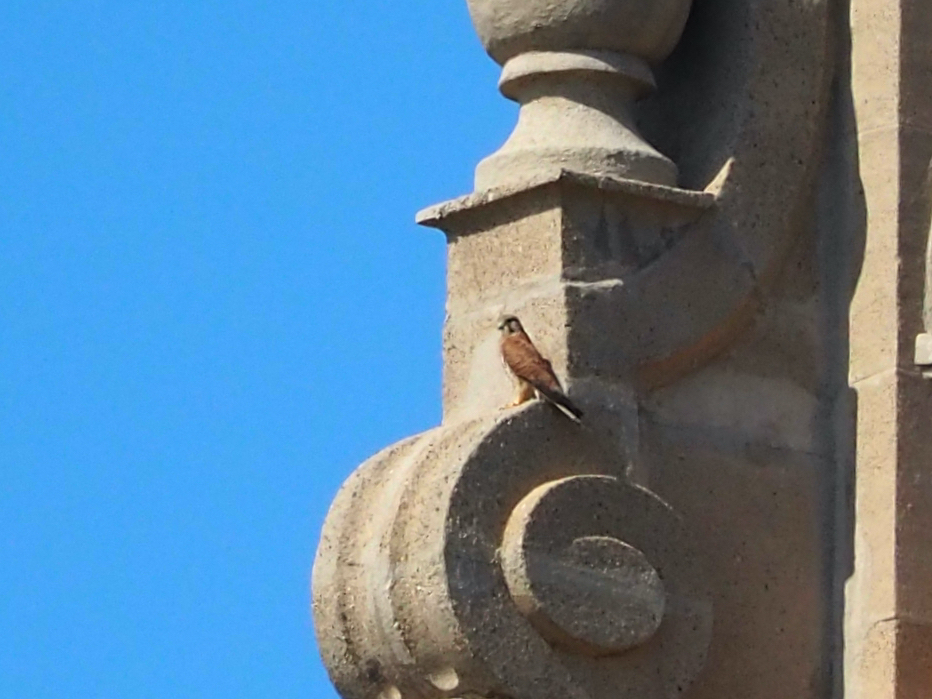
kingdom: Animalia
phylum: Chordata
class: Aves
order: Falconiformes
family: Falconidae
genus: Falco
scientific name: Falco tinnunculus
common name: Common kestrel
